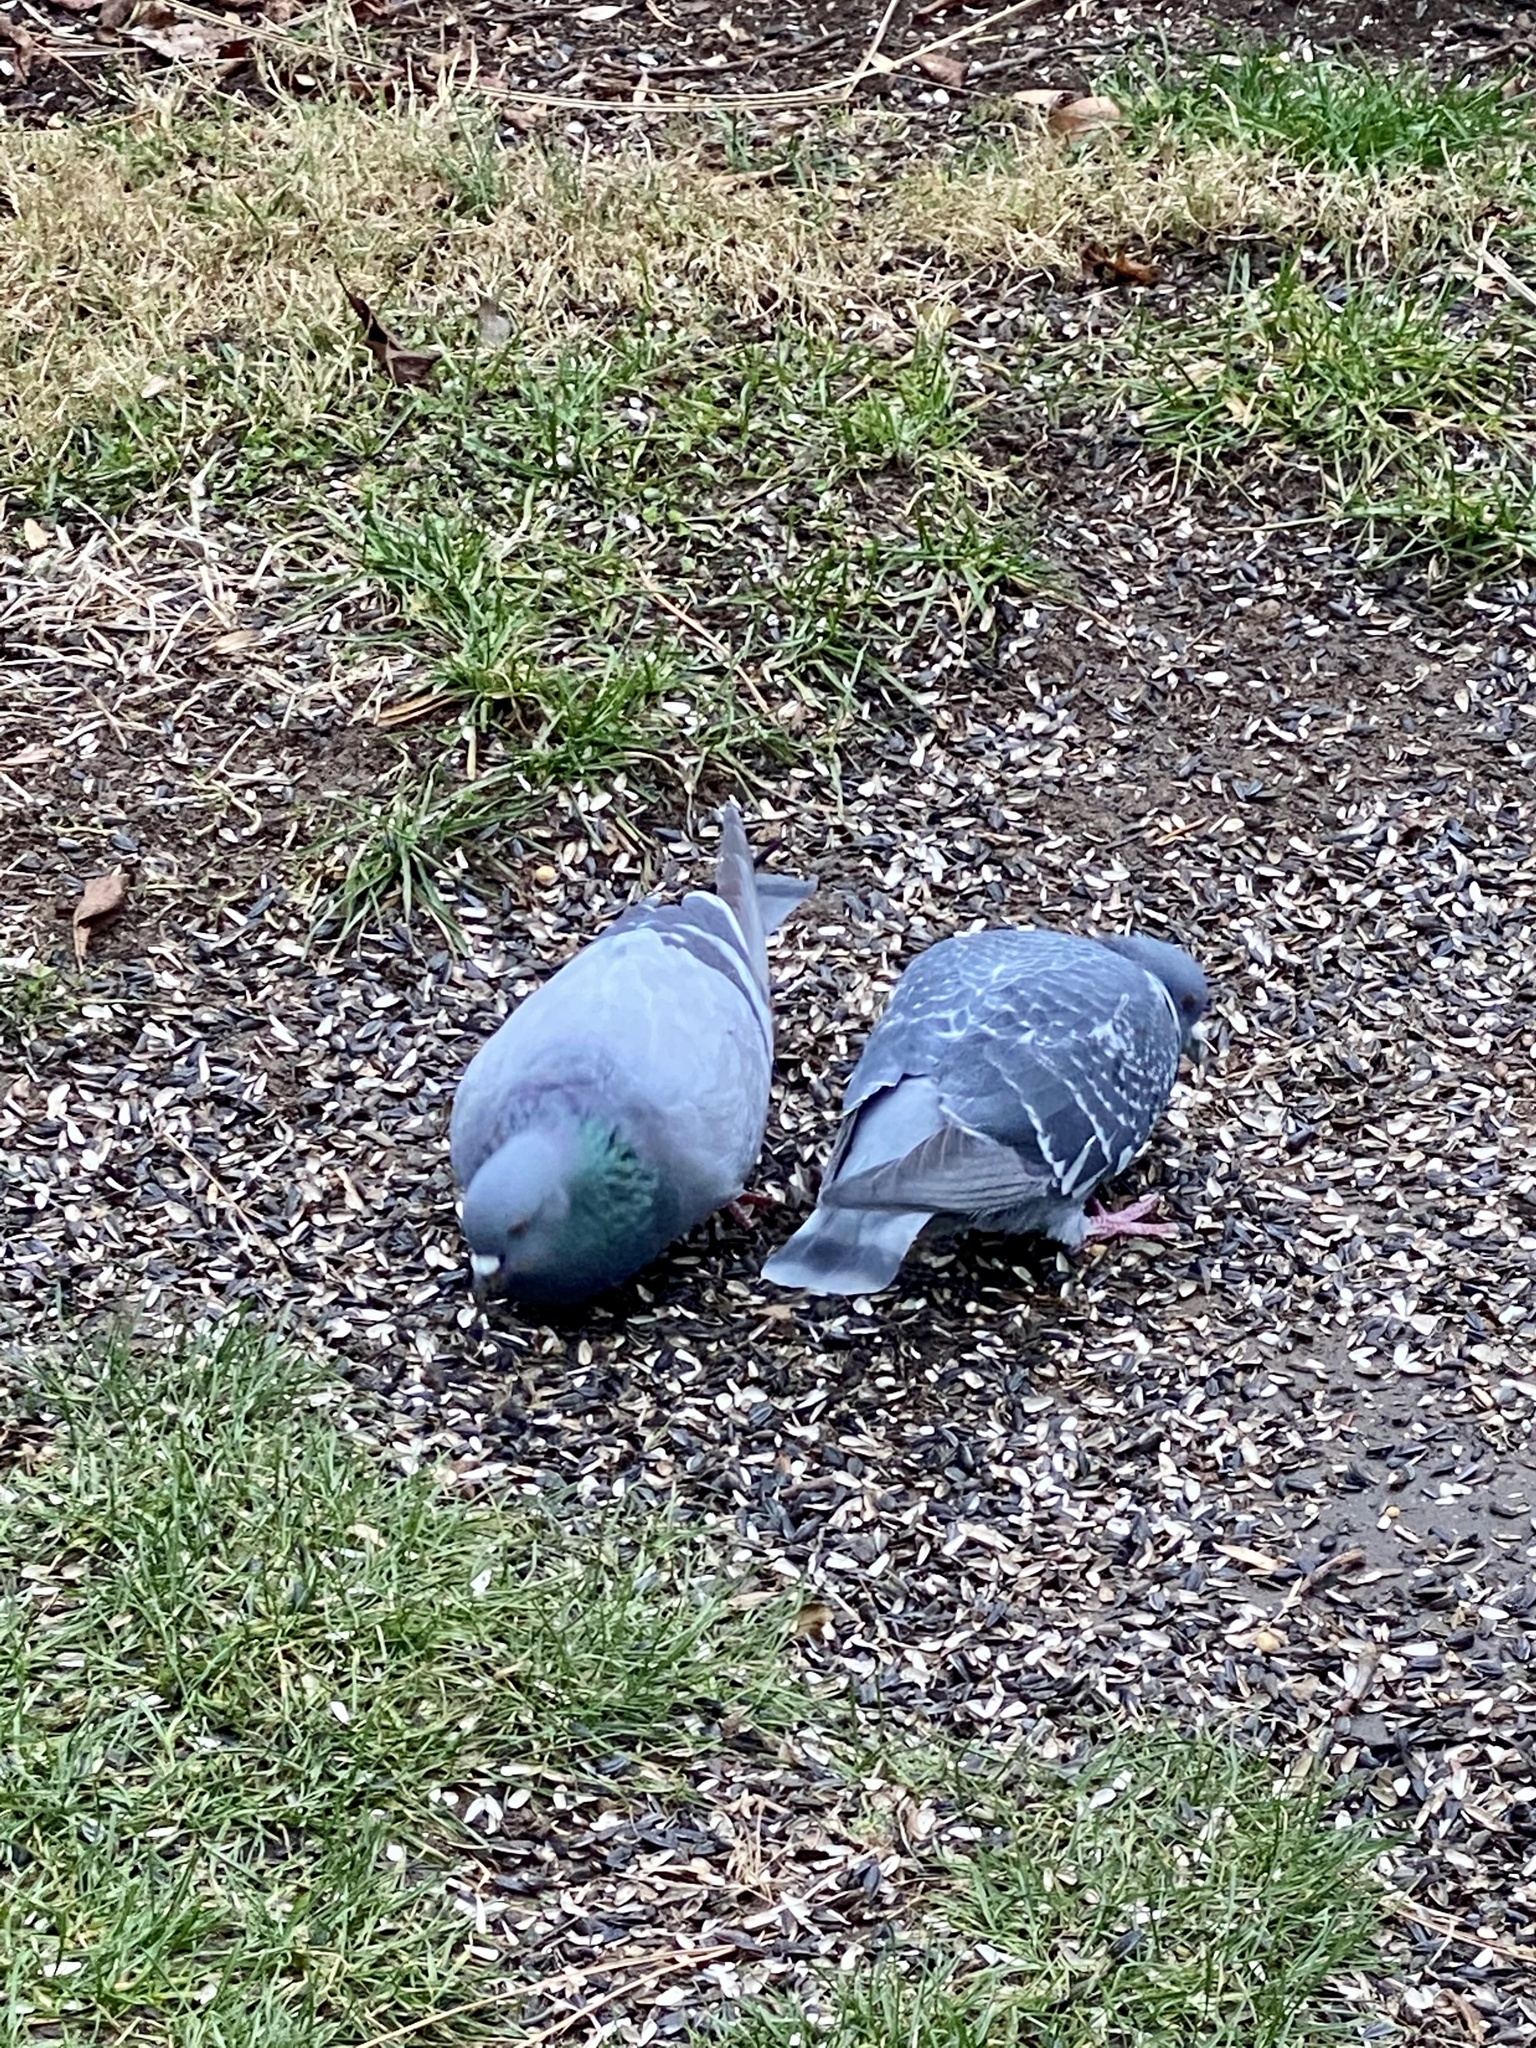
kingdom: Animalia
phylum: Chordata
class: Aves
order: Columbiformes
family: Columbidae
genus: Columba
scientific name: Columba livia
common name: Rock pigeon
